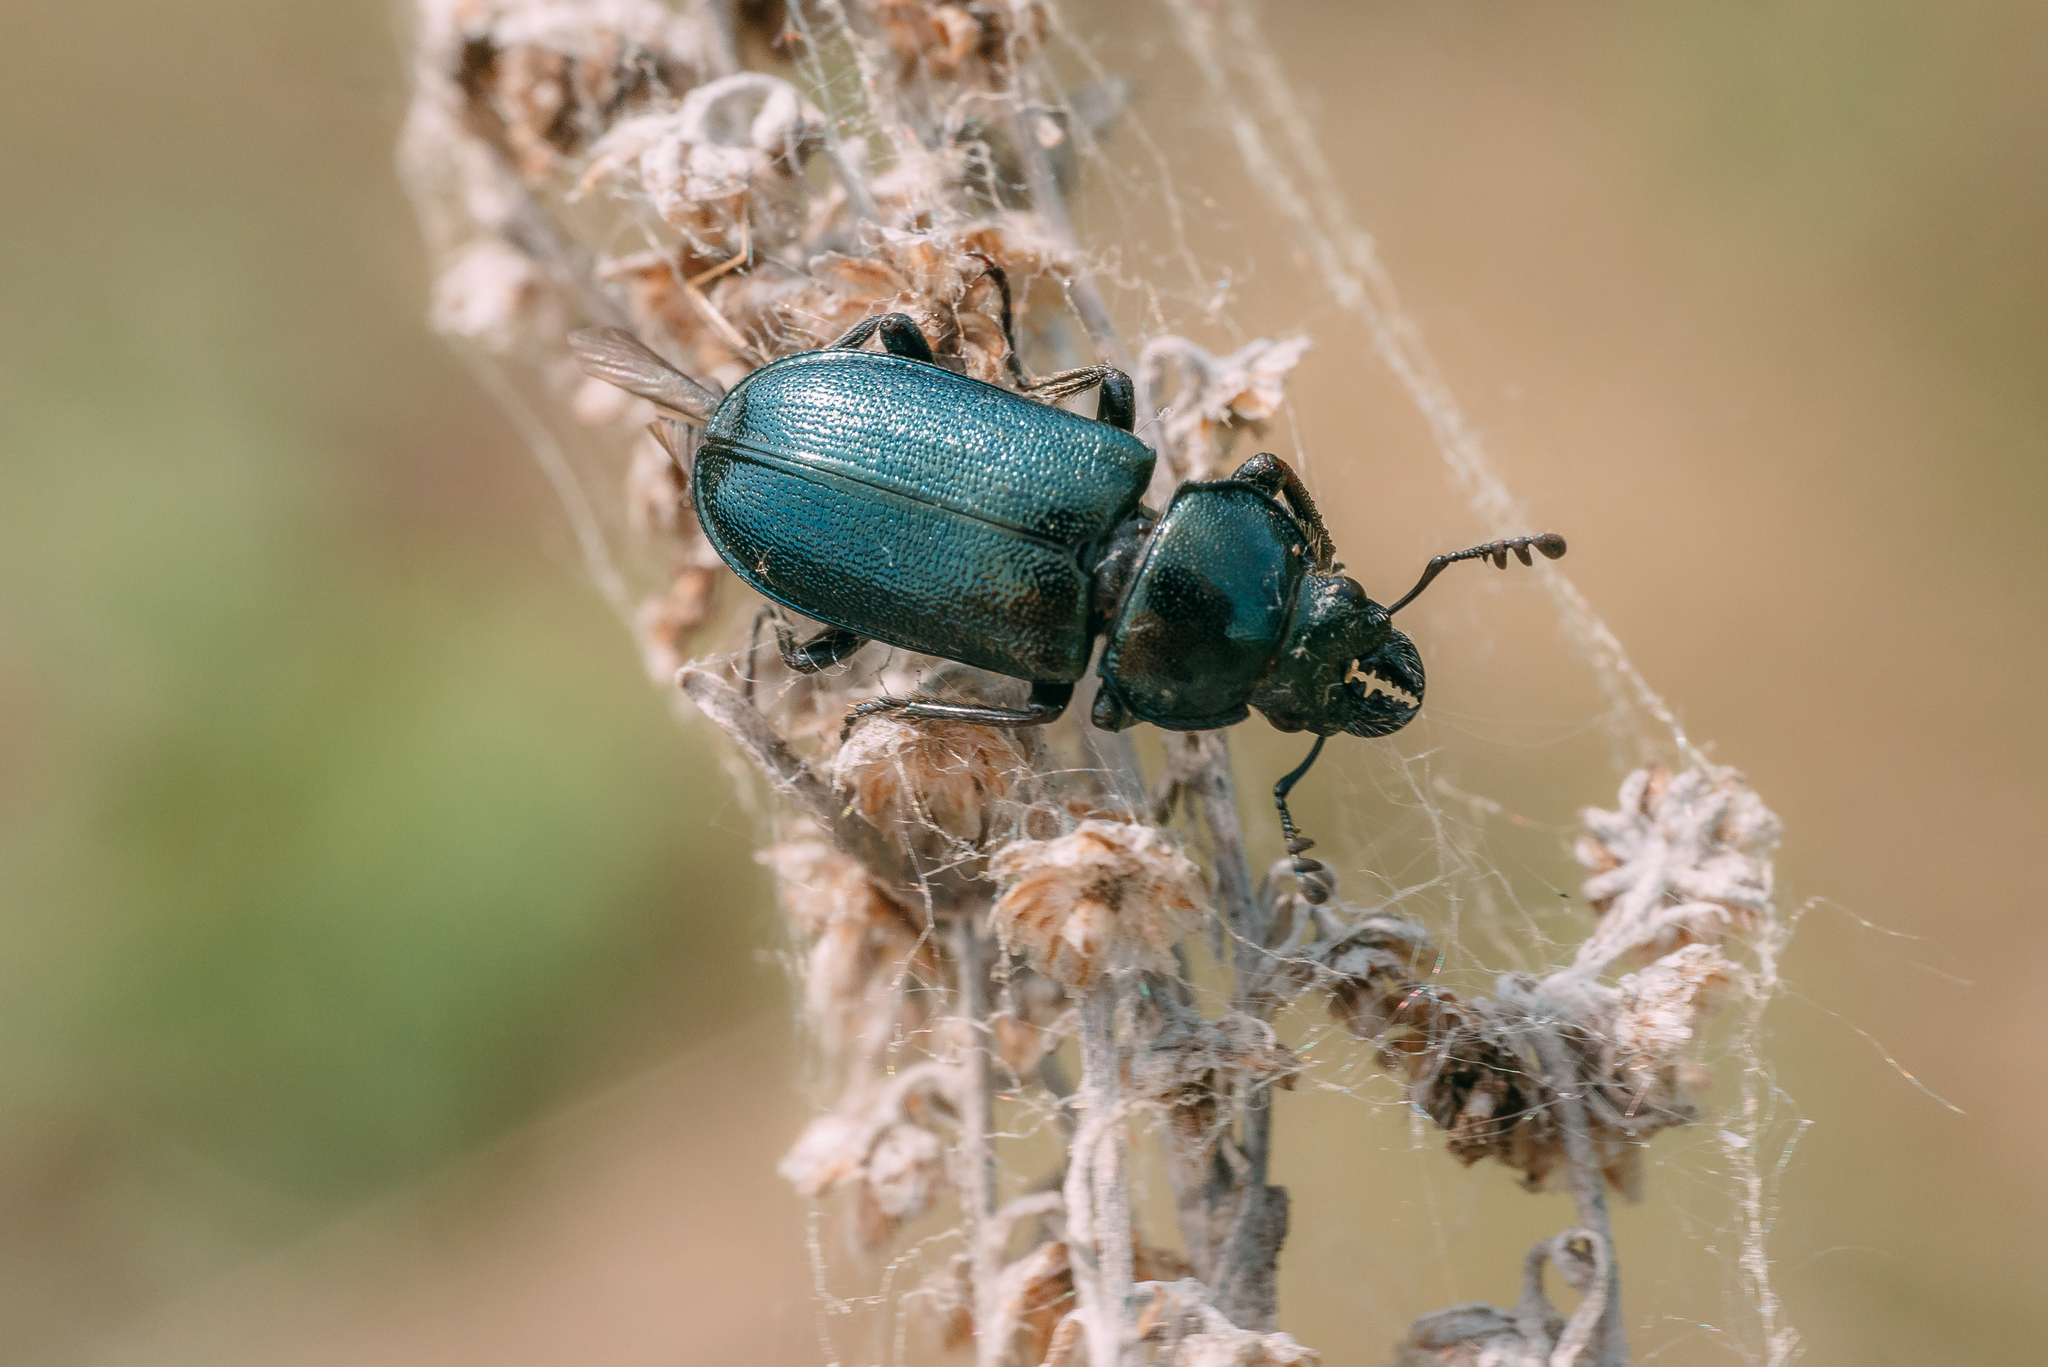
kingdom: Animalia
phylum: Arthropoda
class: Insecta
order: Coleoptera
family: Lucanidae
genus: Platycerus
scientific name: Platycerus caraboides
